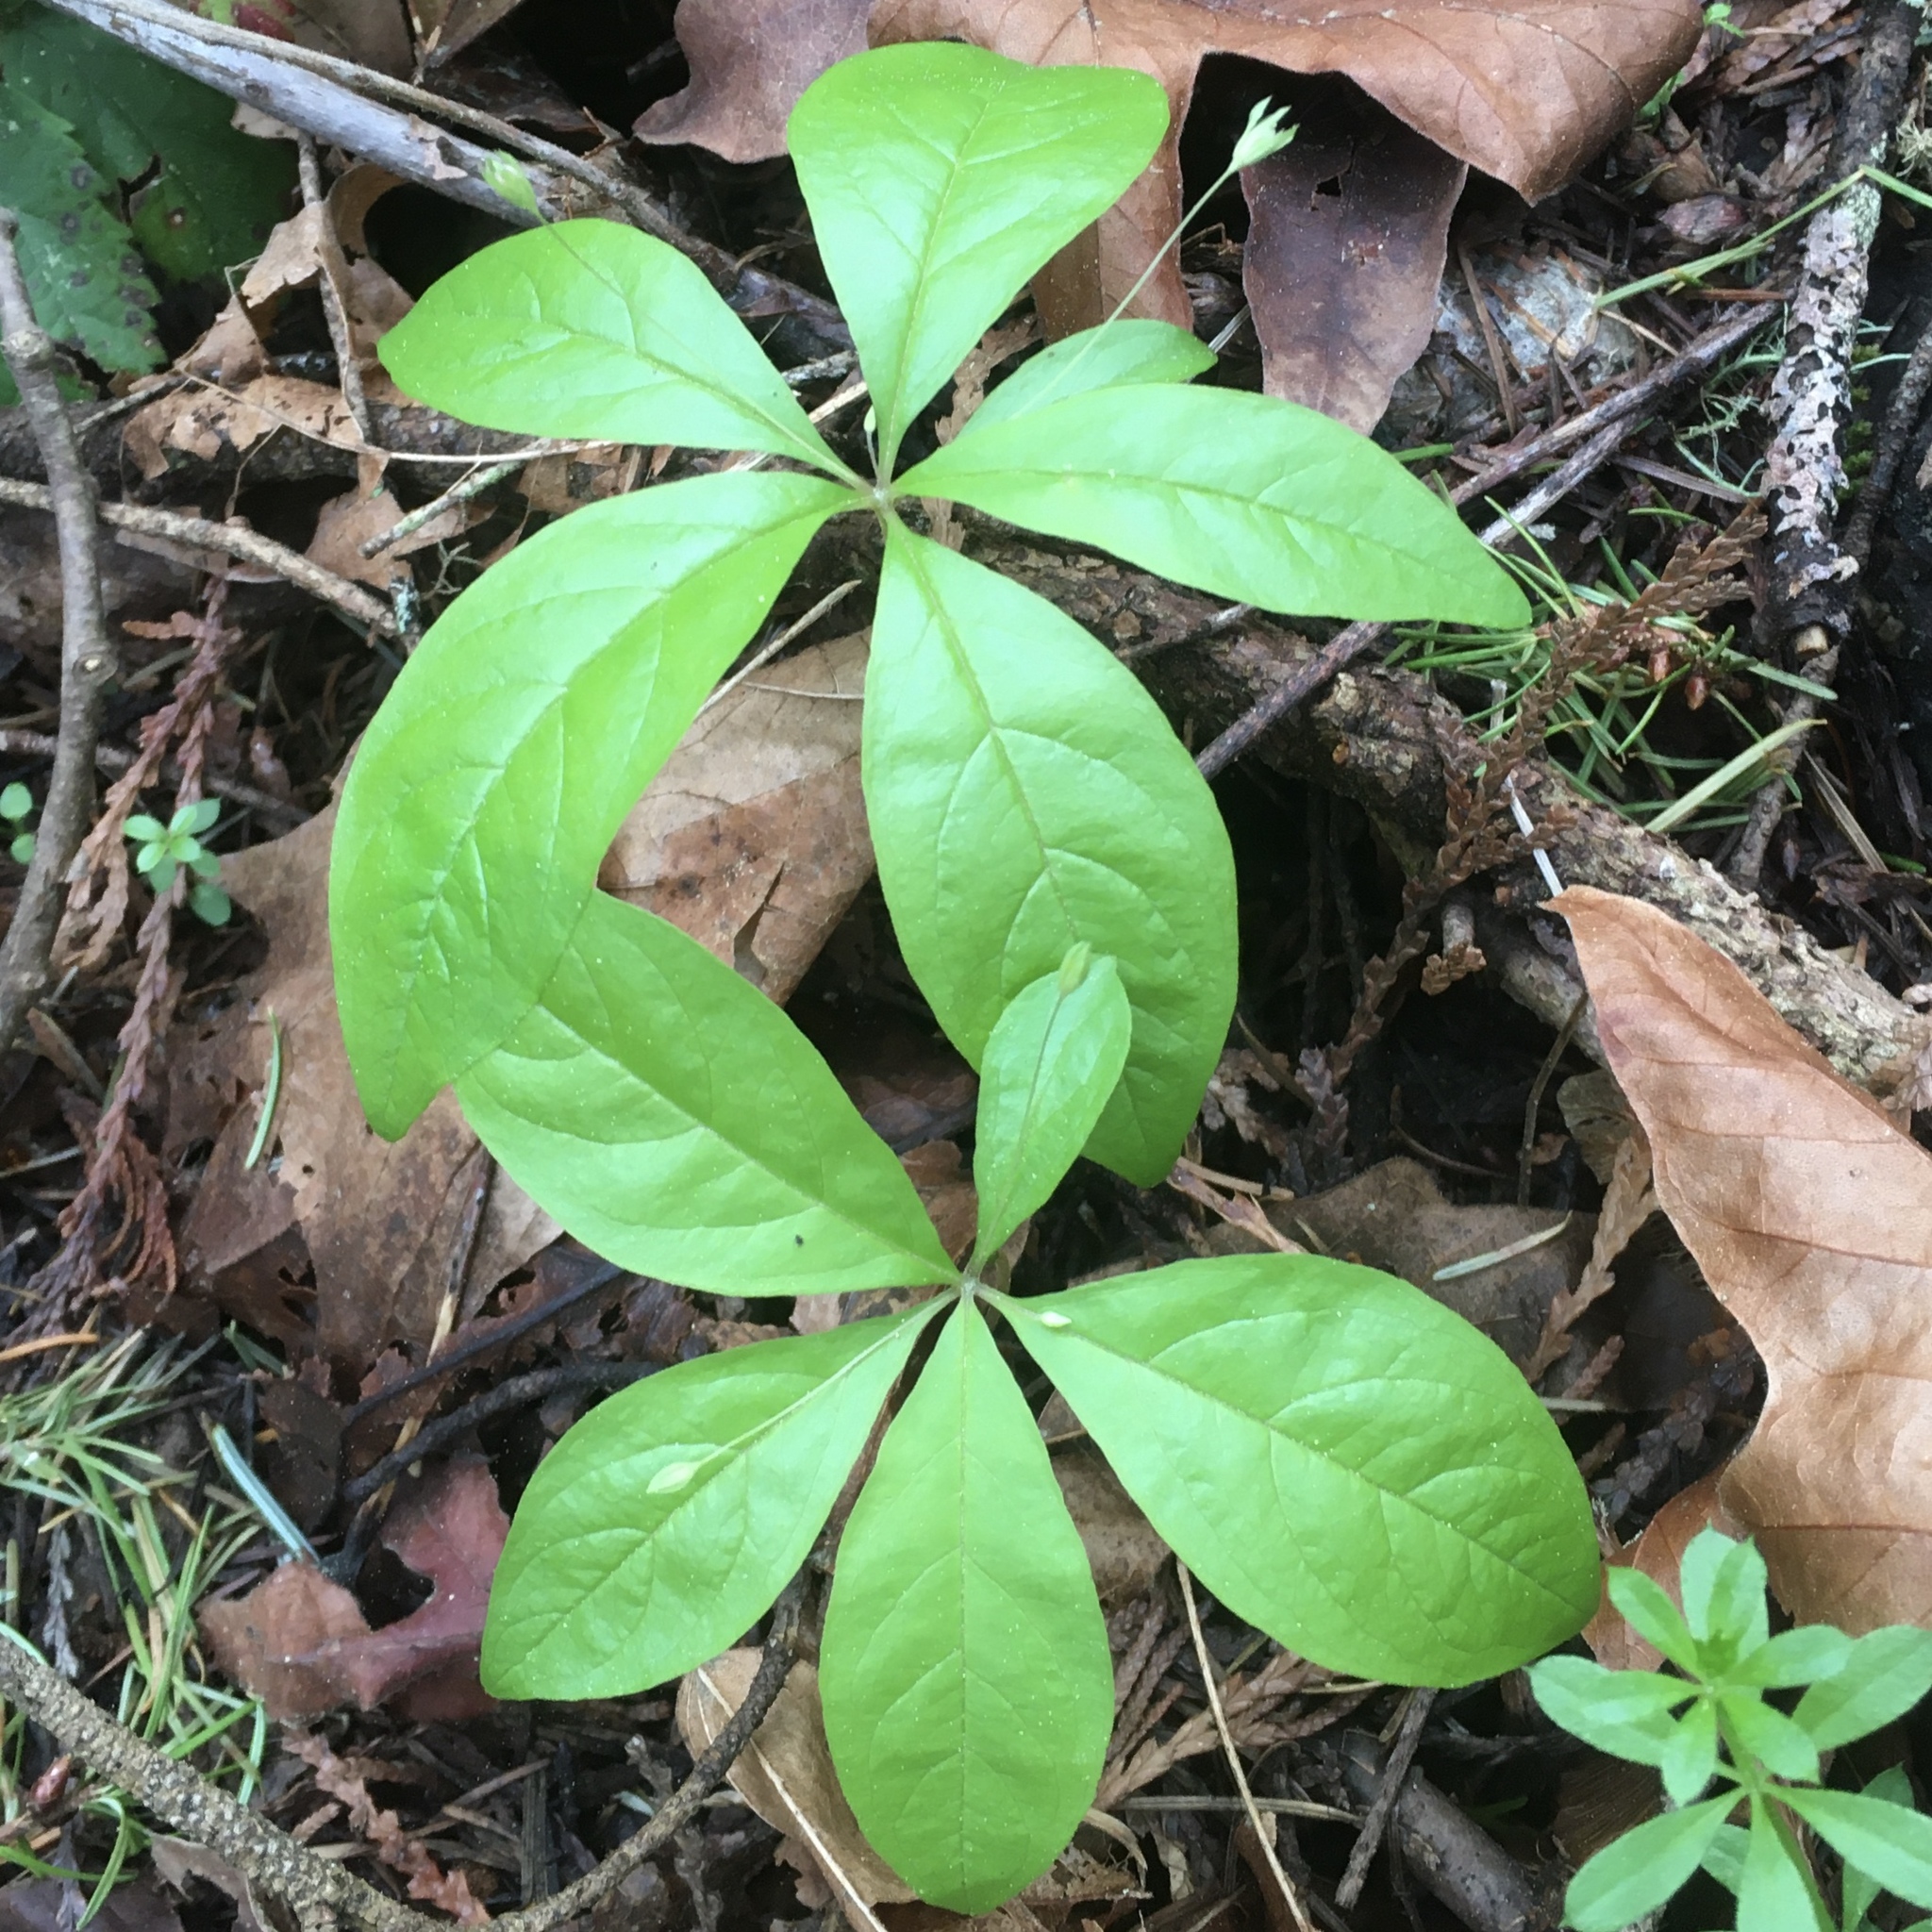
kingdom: Plantae
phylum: Tracheophyta
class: Magnoliopsida
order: Ericales
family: Primulaceae
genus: Lysimachia
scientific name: Lysimachia latifolia
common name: Pacific starflower
